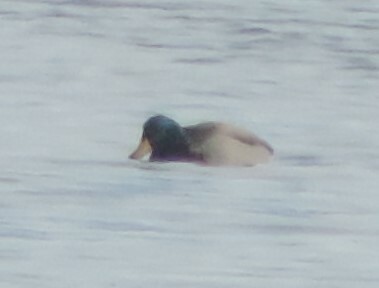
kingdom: Animalia
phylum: Chordata
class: Aves
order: Anseriformes
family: Anatidae
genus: Anas
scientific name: Anas platyrhynchos
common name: Mallard
